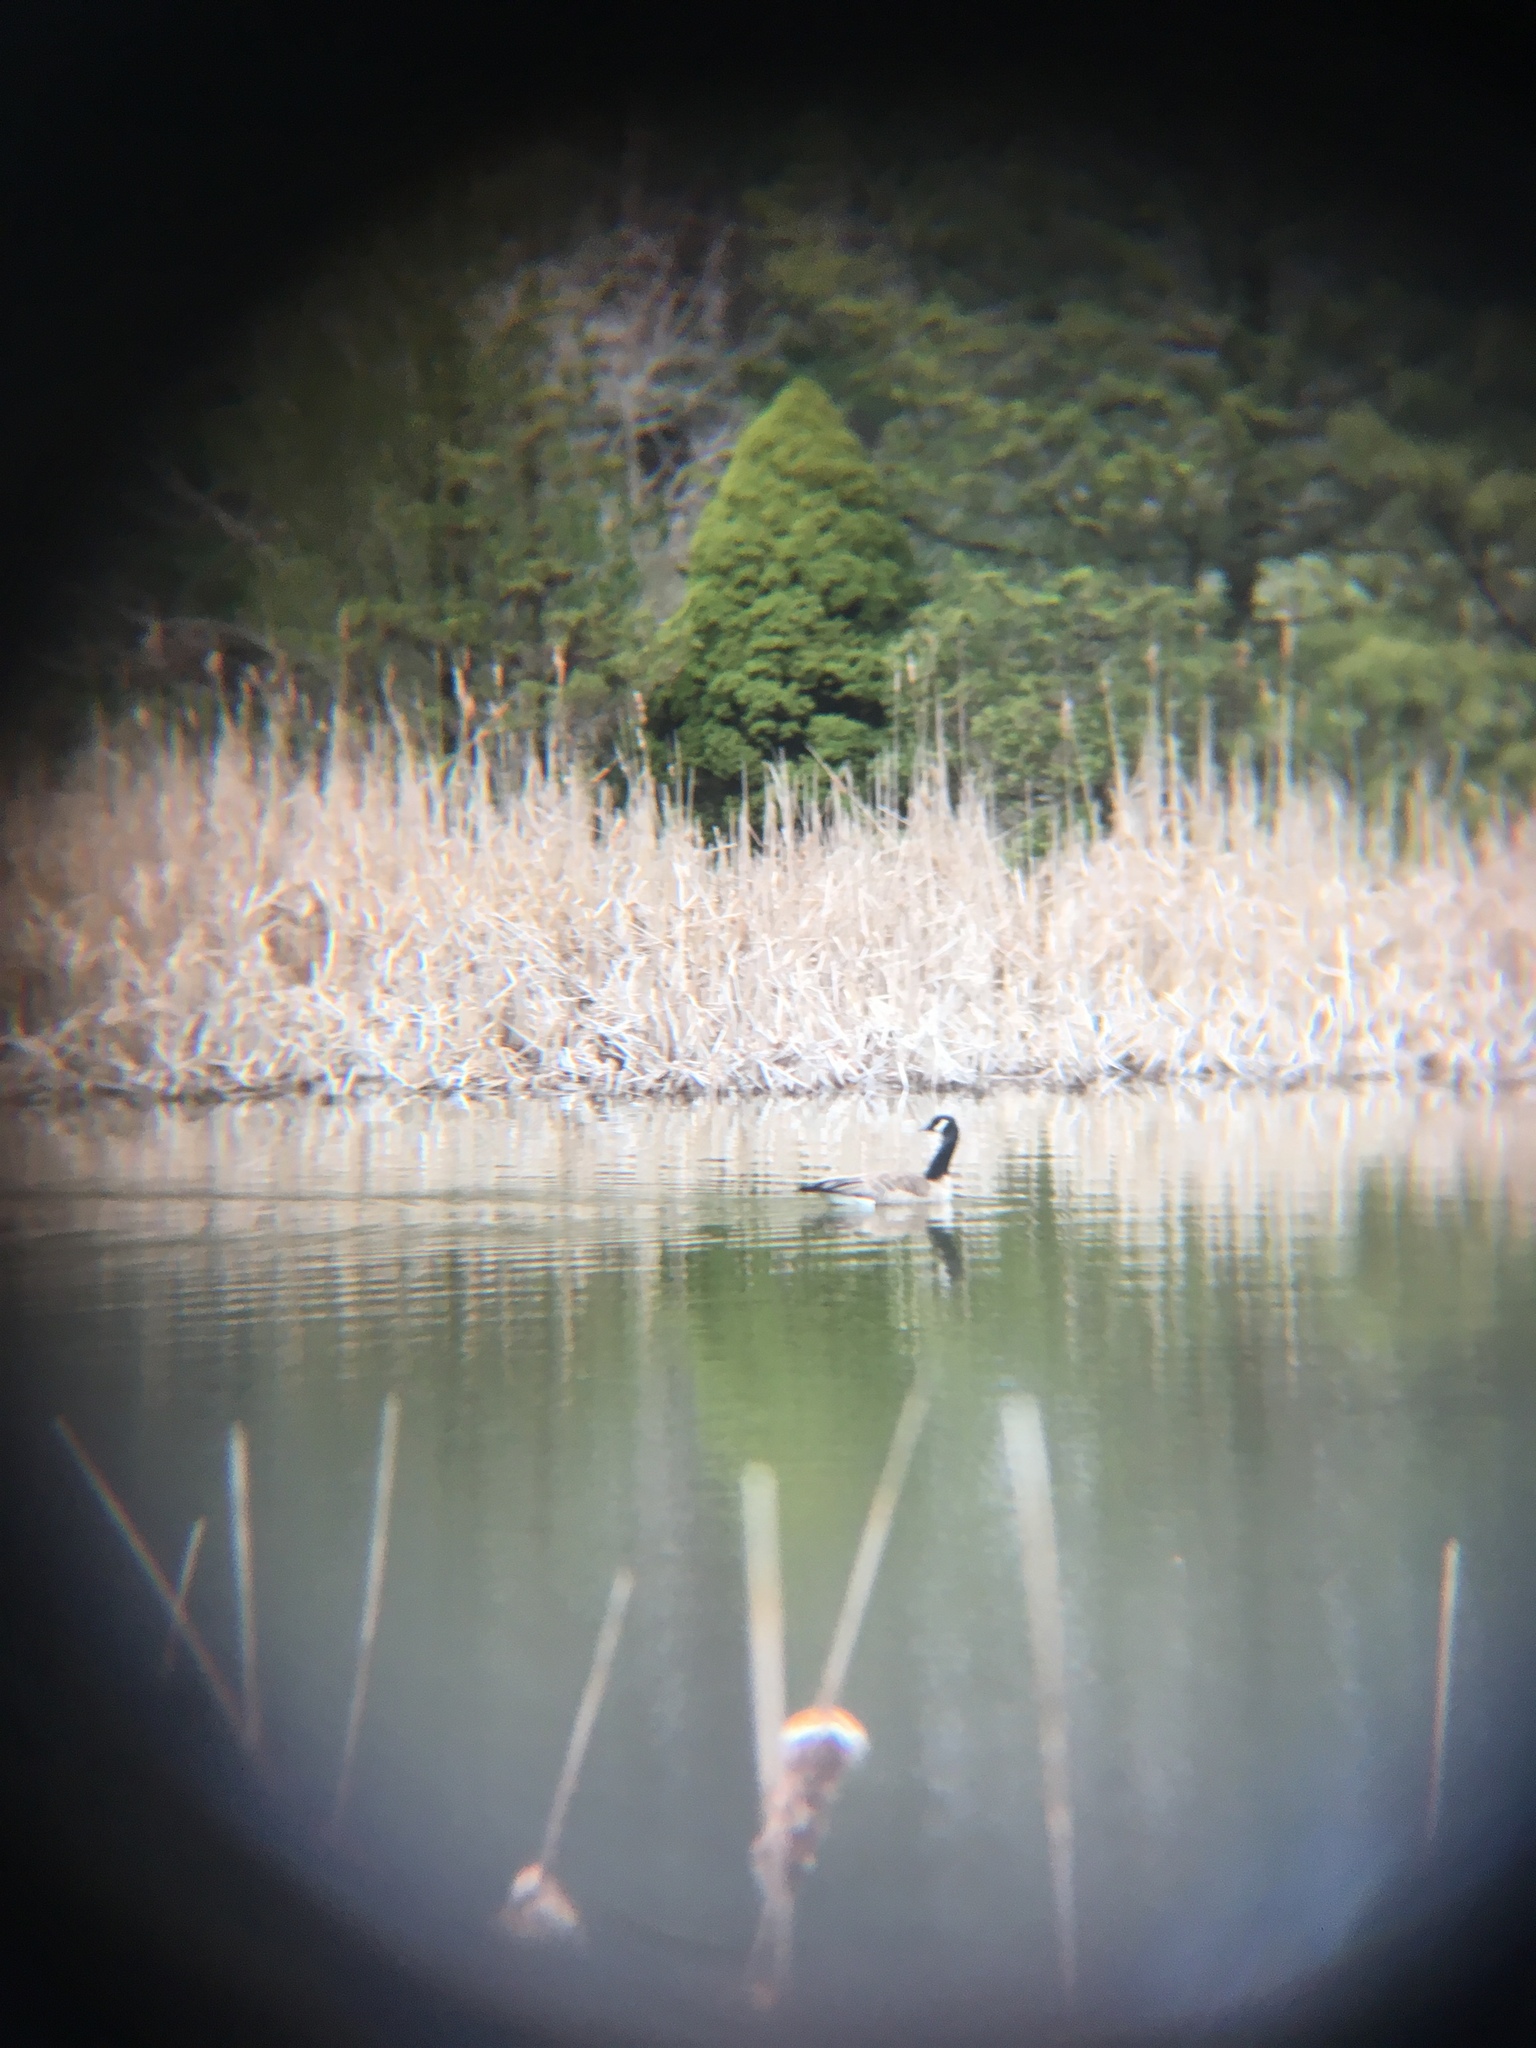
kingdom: Animalia
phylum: Chordata
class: Aves
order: Anseriformes
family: Anatidae
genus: Branta
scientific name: Branta canadensis
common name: Canada goose
